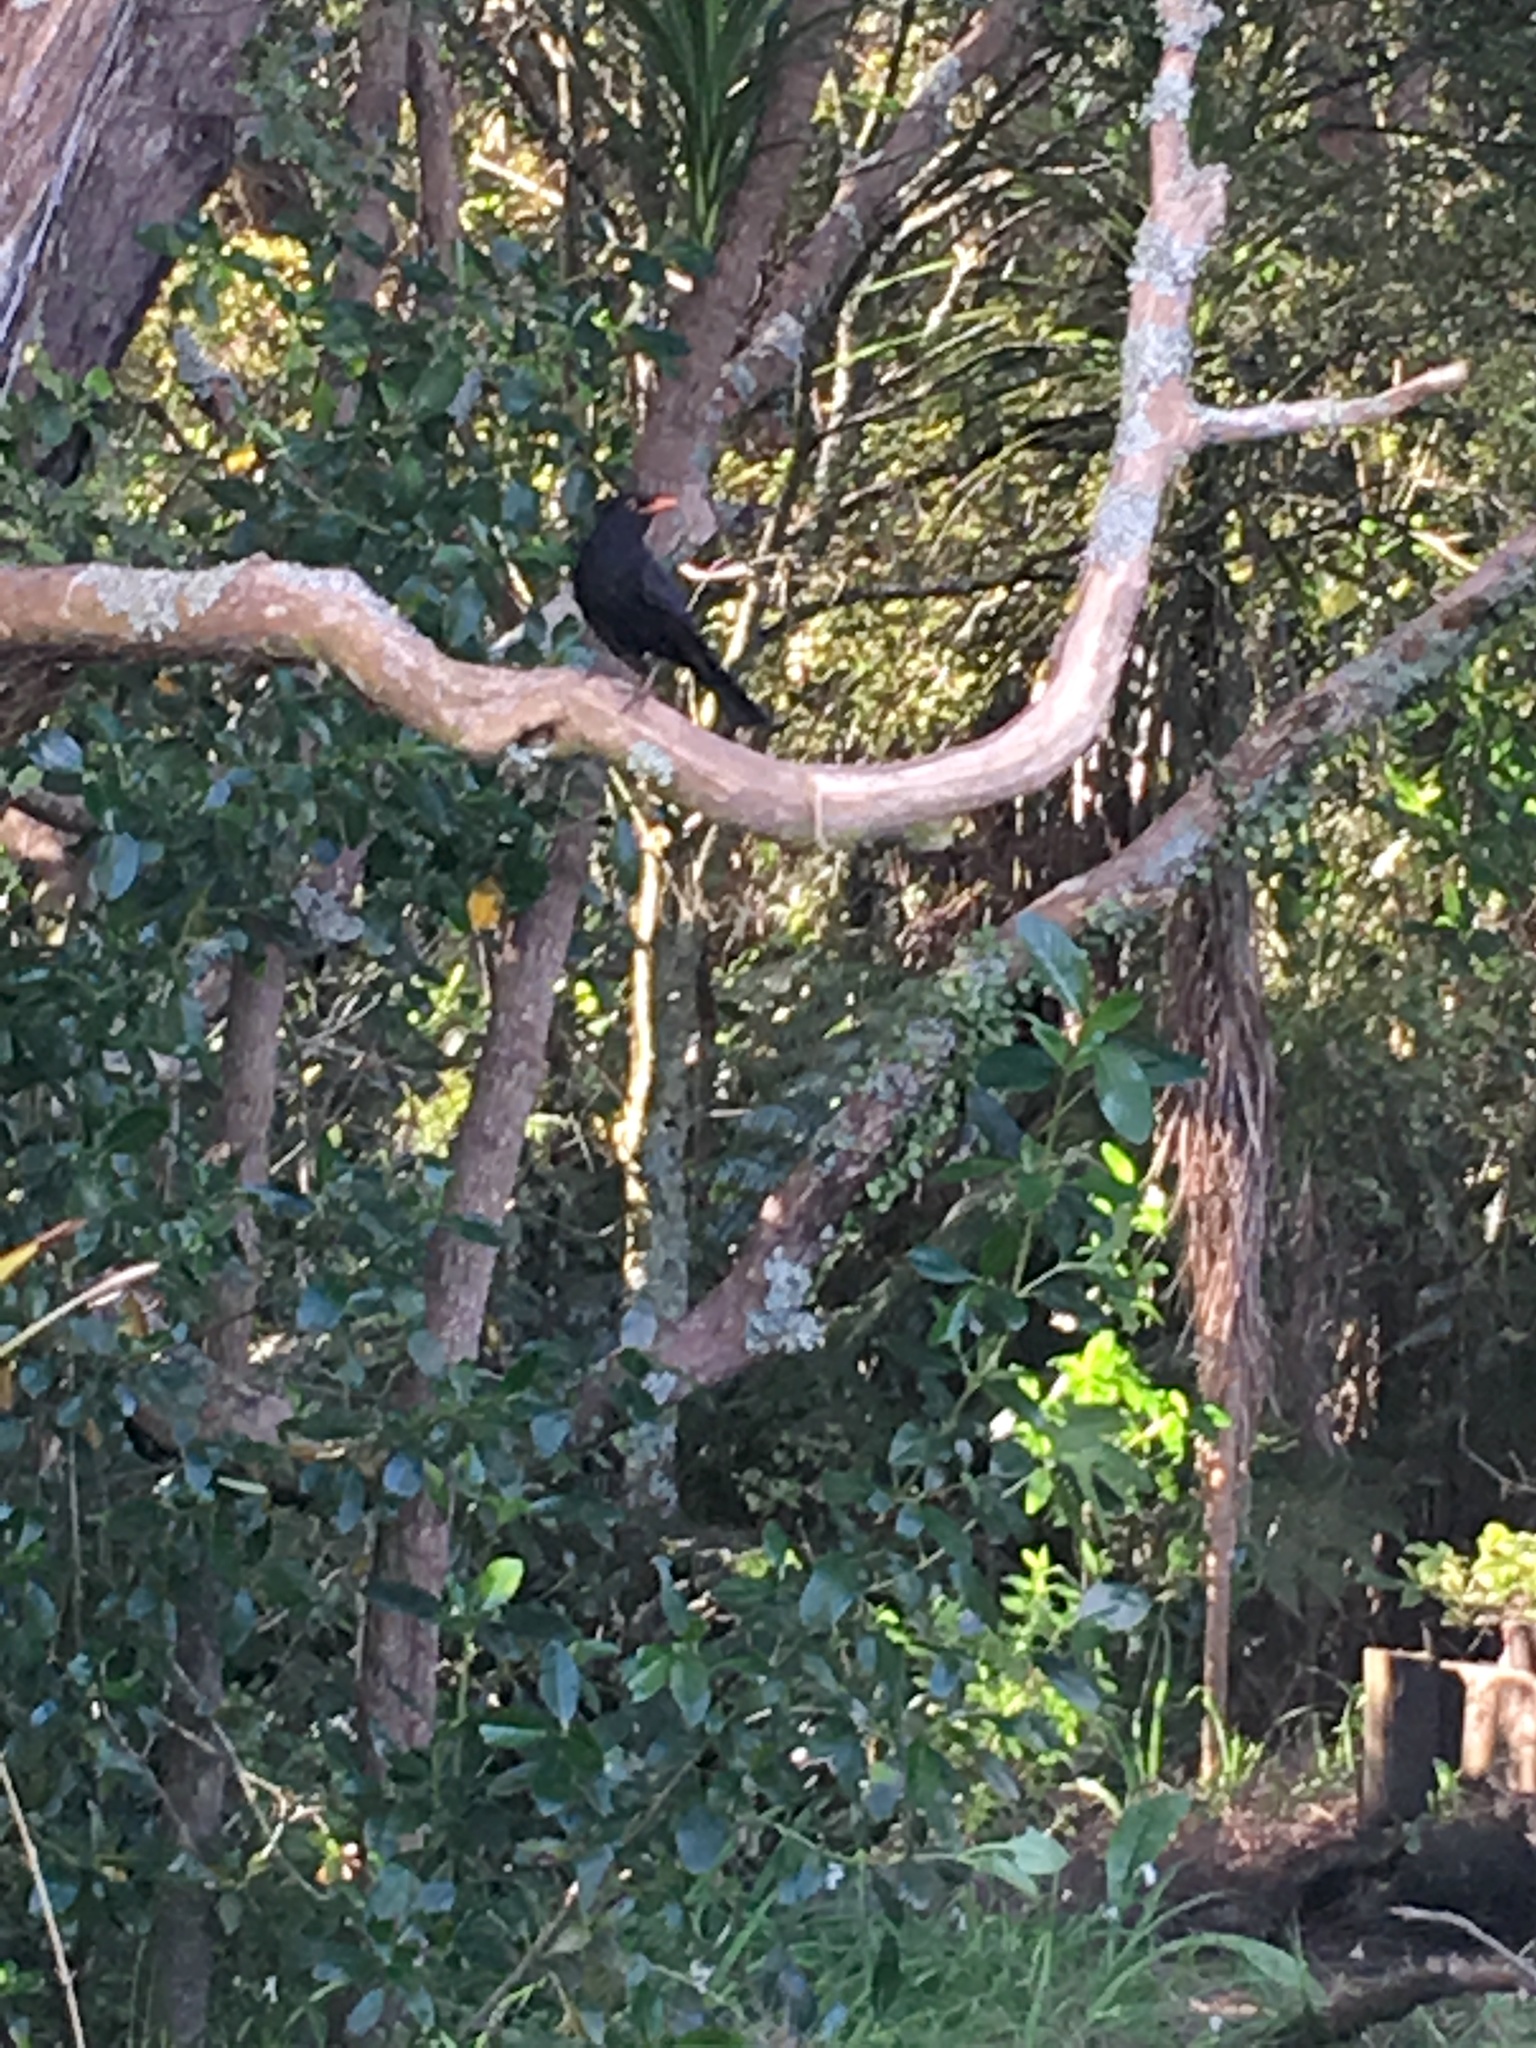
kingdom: Animalia
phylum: Chordata
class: Aves
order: Passeriformes
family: Turdidae
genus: Turdus
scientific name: Turdus merula
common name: Common blackbird
